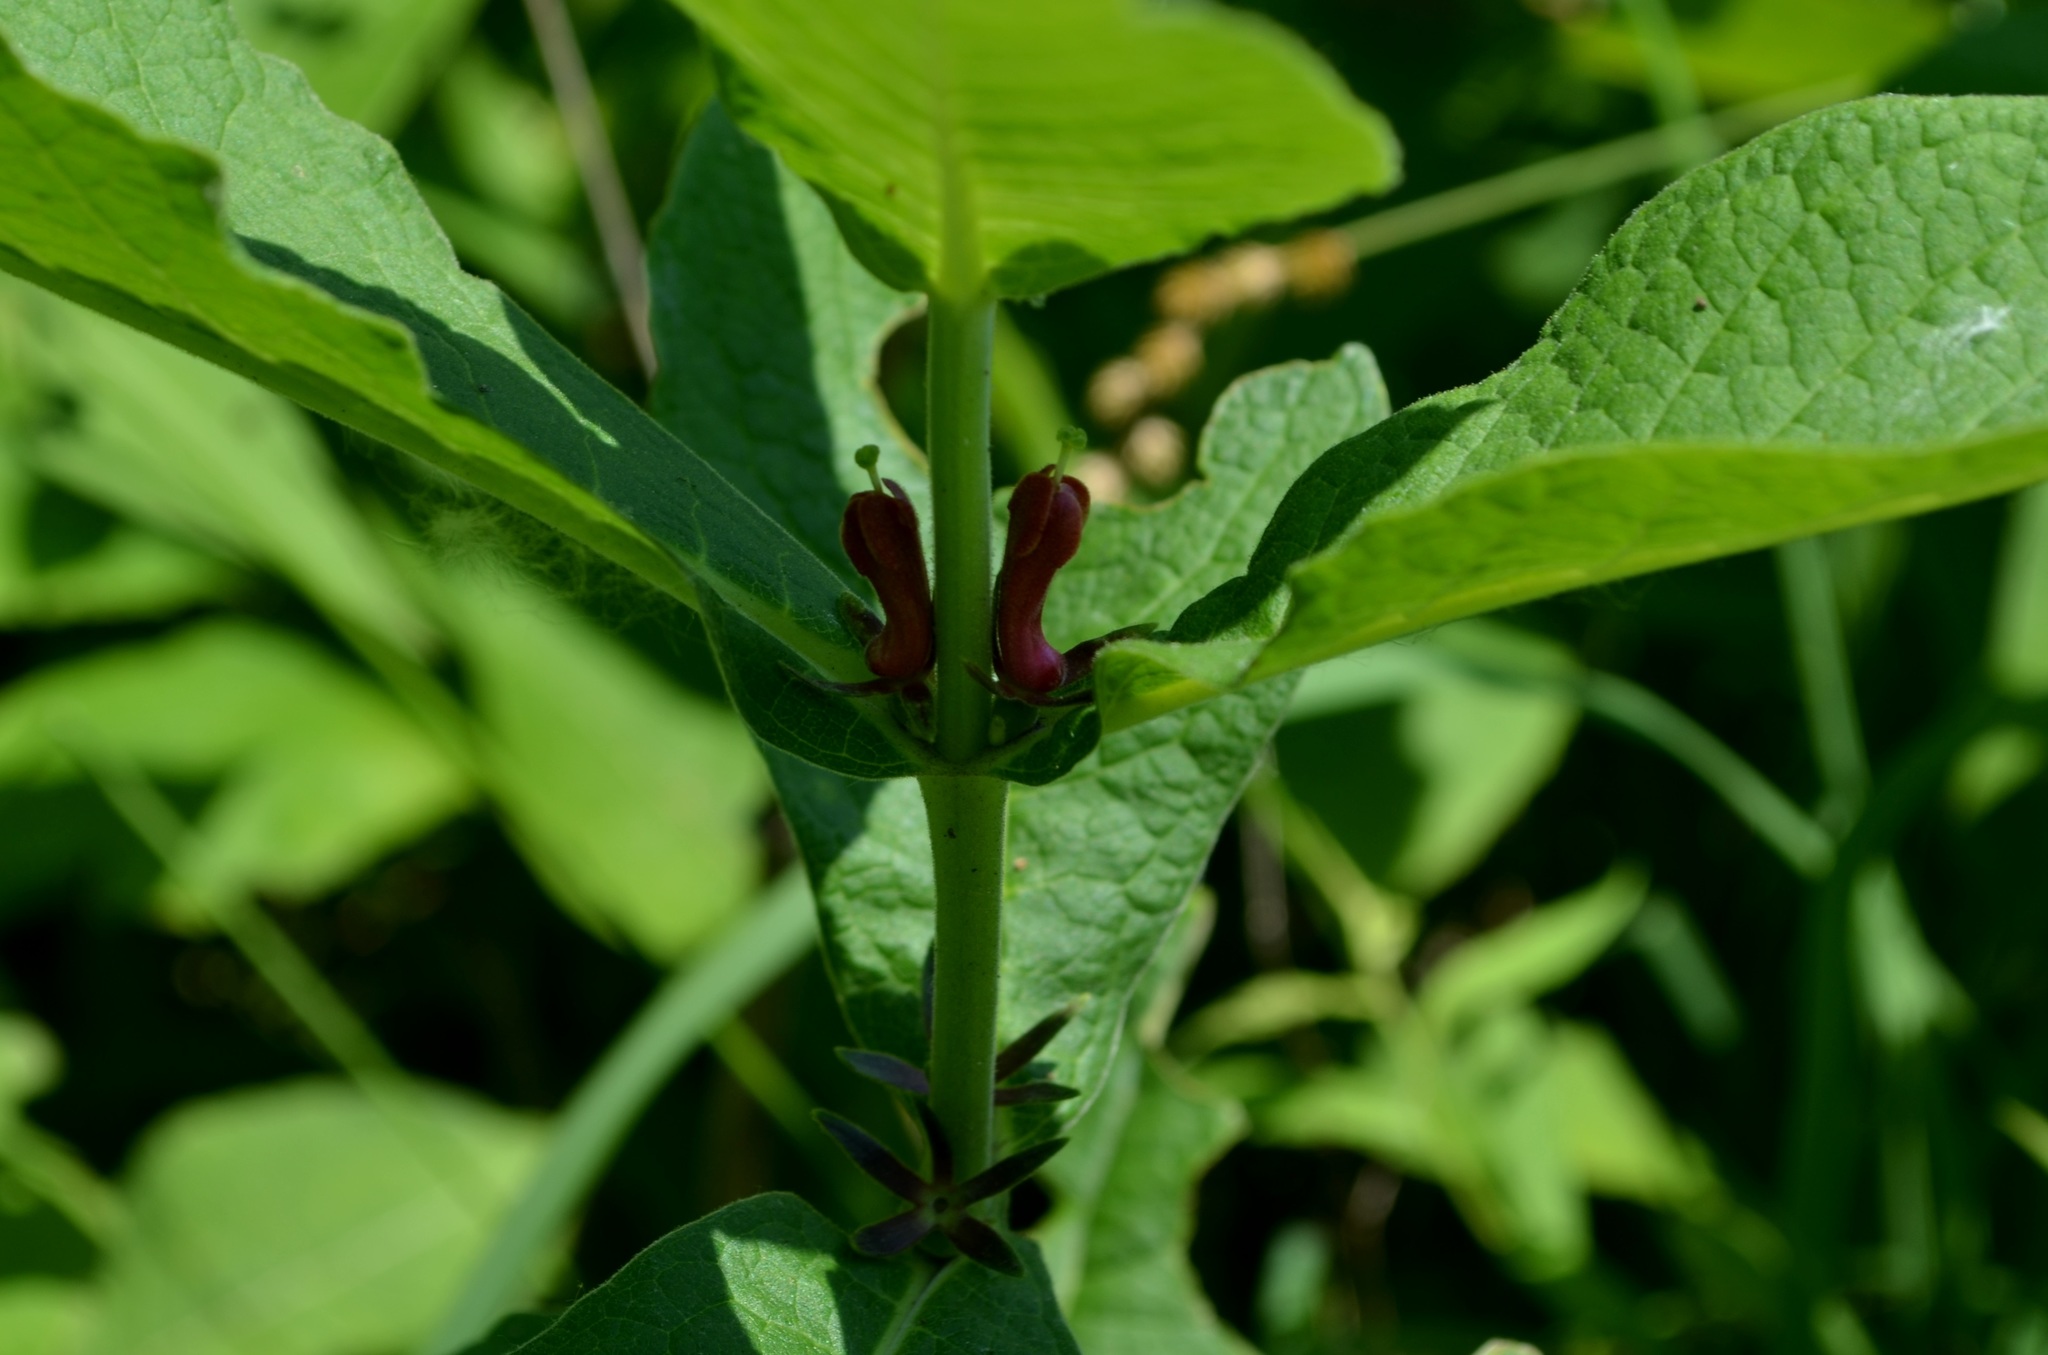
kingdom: Plantae
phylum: Tracheophyta
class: Magnoliopsida
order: Dipsacales
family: Caprifoliaceae
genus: Triosteum
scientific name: Triosteum aurantiacum
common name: Coffee tinker's-weed
